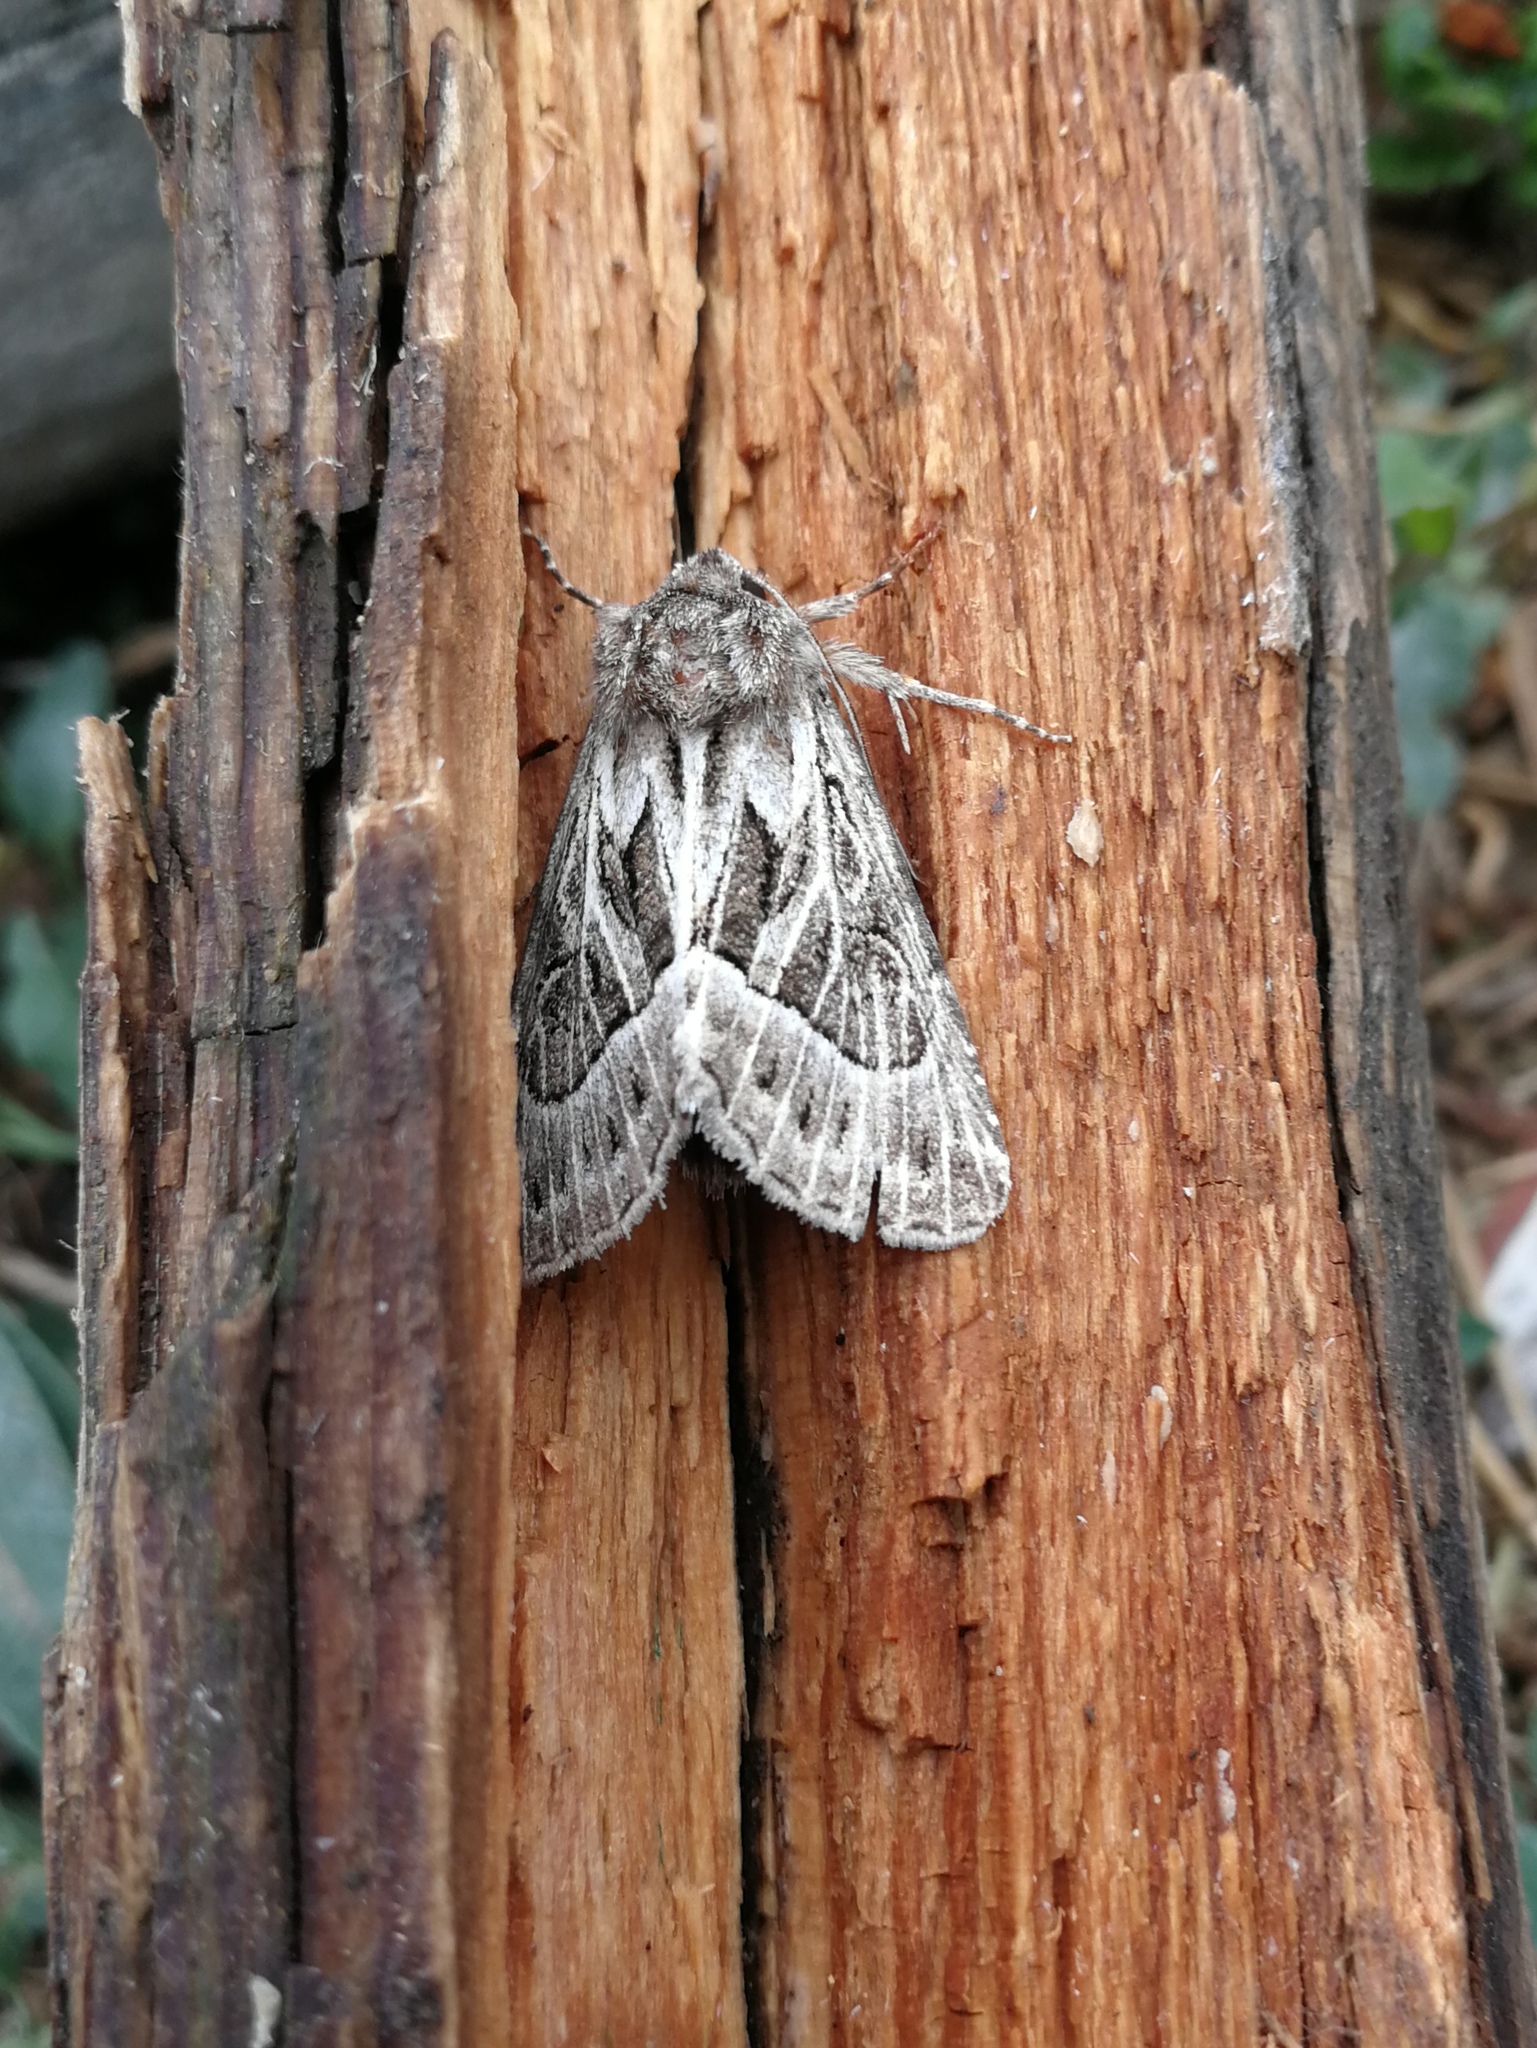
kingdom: Animalia
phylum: Arthropoda
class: Insecta
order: Lepidoptera
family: Noctuidae
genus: Thalpophila
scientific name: Thalpophila vitalba
